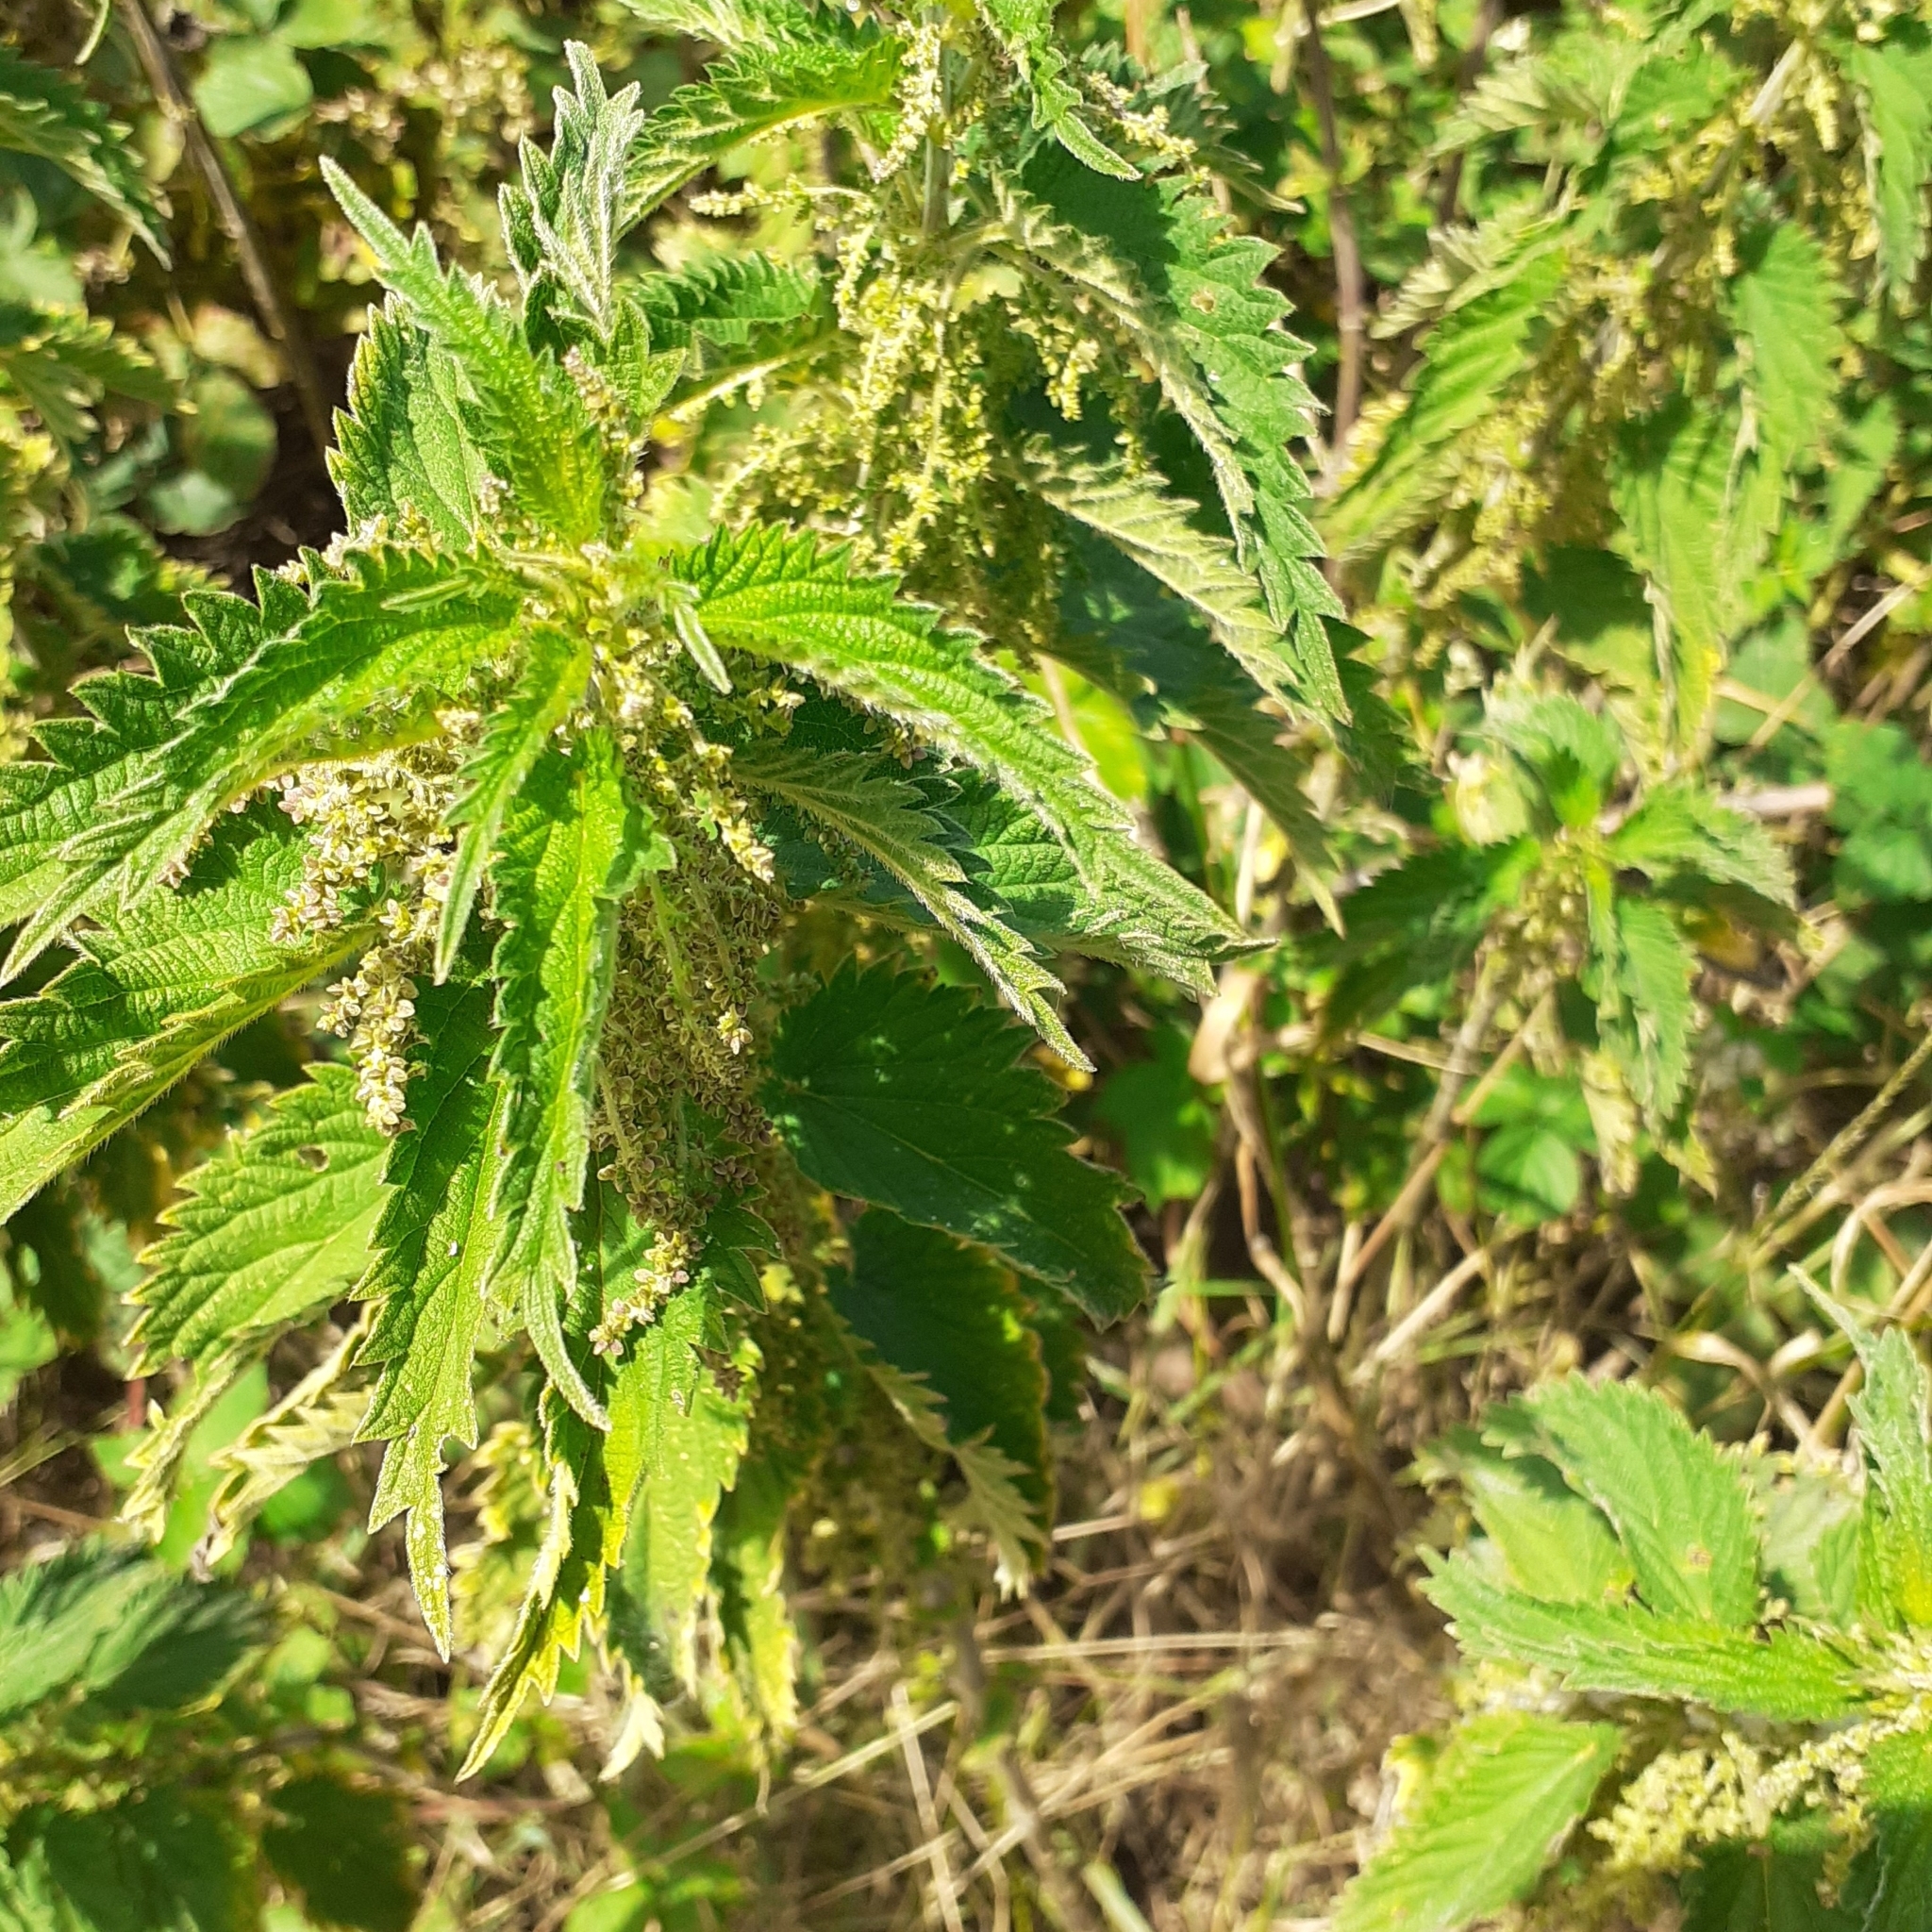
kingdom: Plantae
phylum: Tracheophyta
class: Magnoliopsida
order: Rosales
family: Urticaceae
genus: Urtica
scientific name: Urtica dioica
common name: Common nettle
